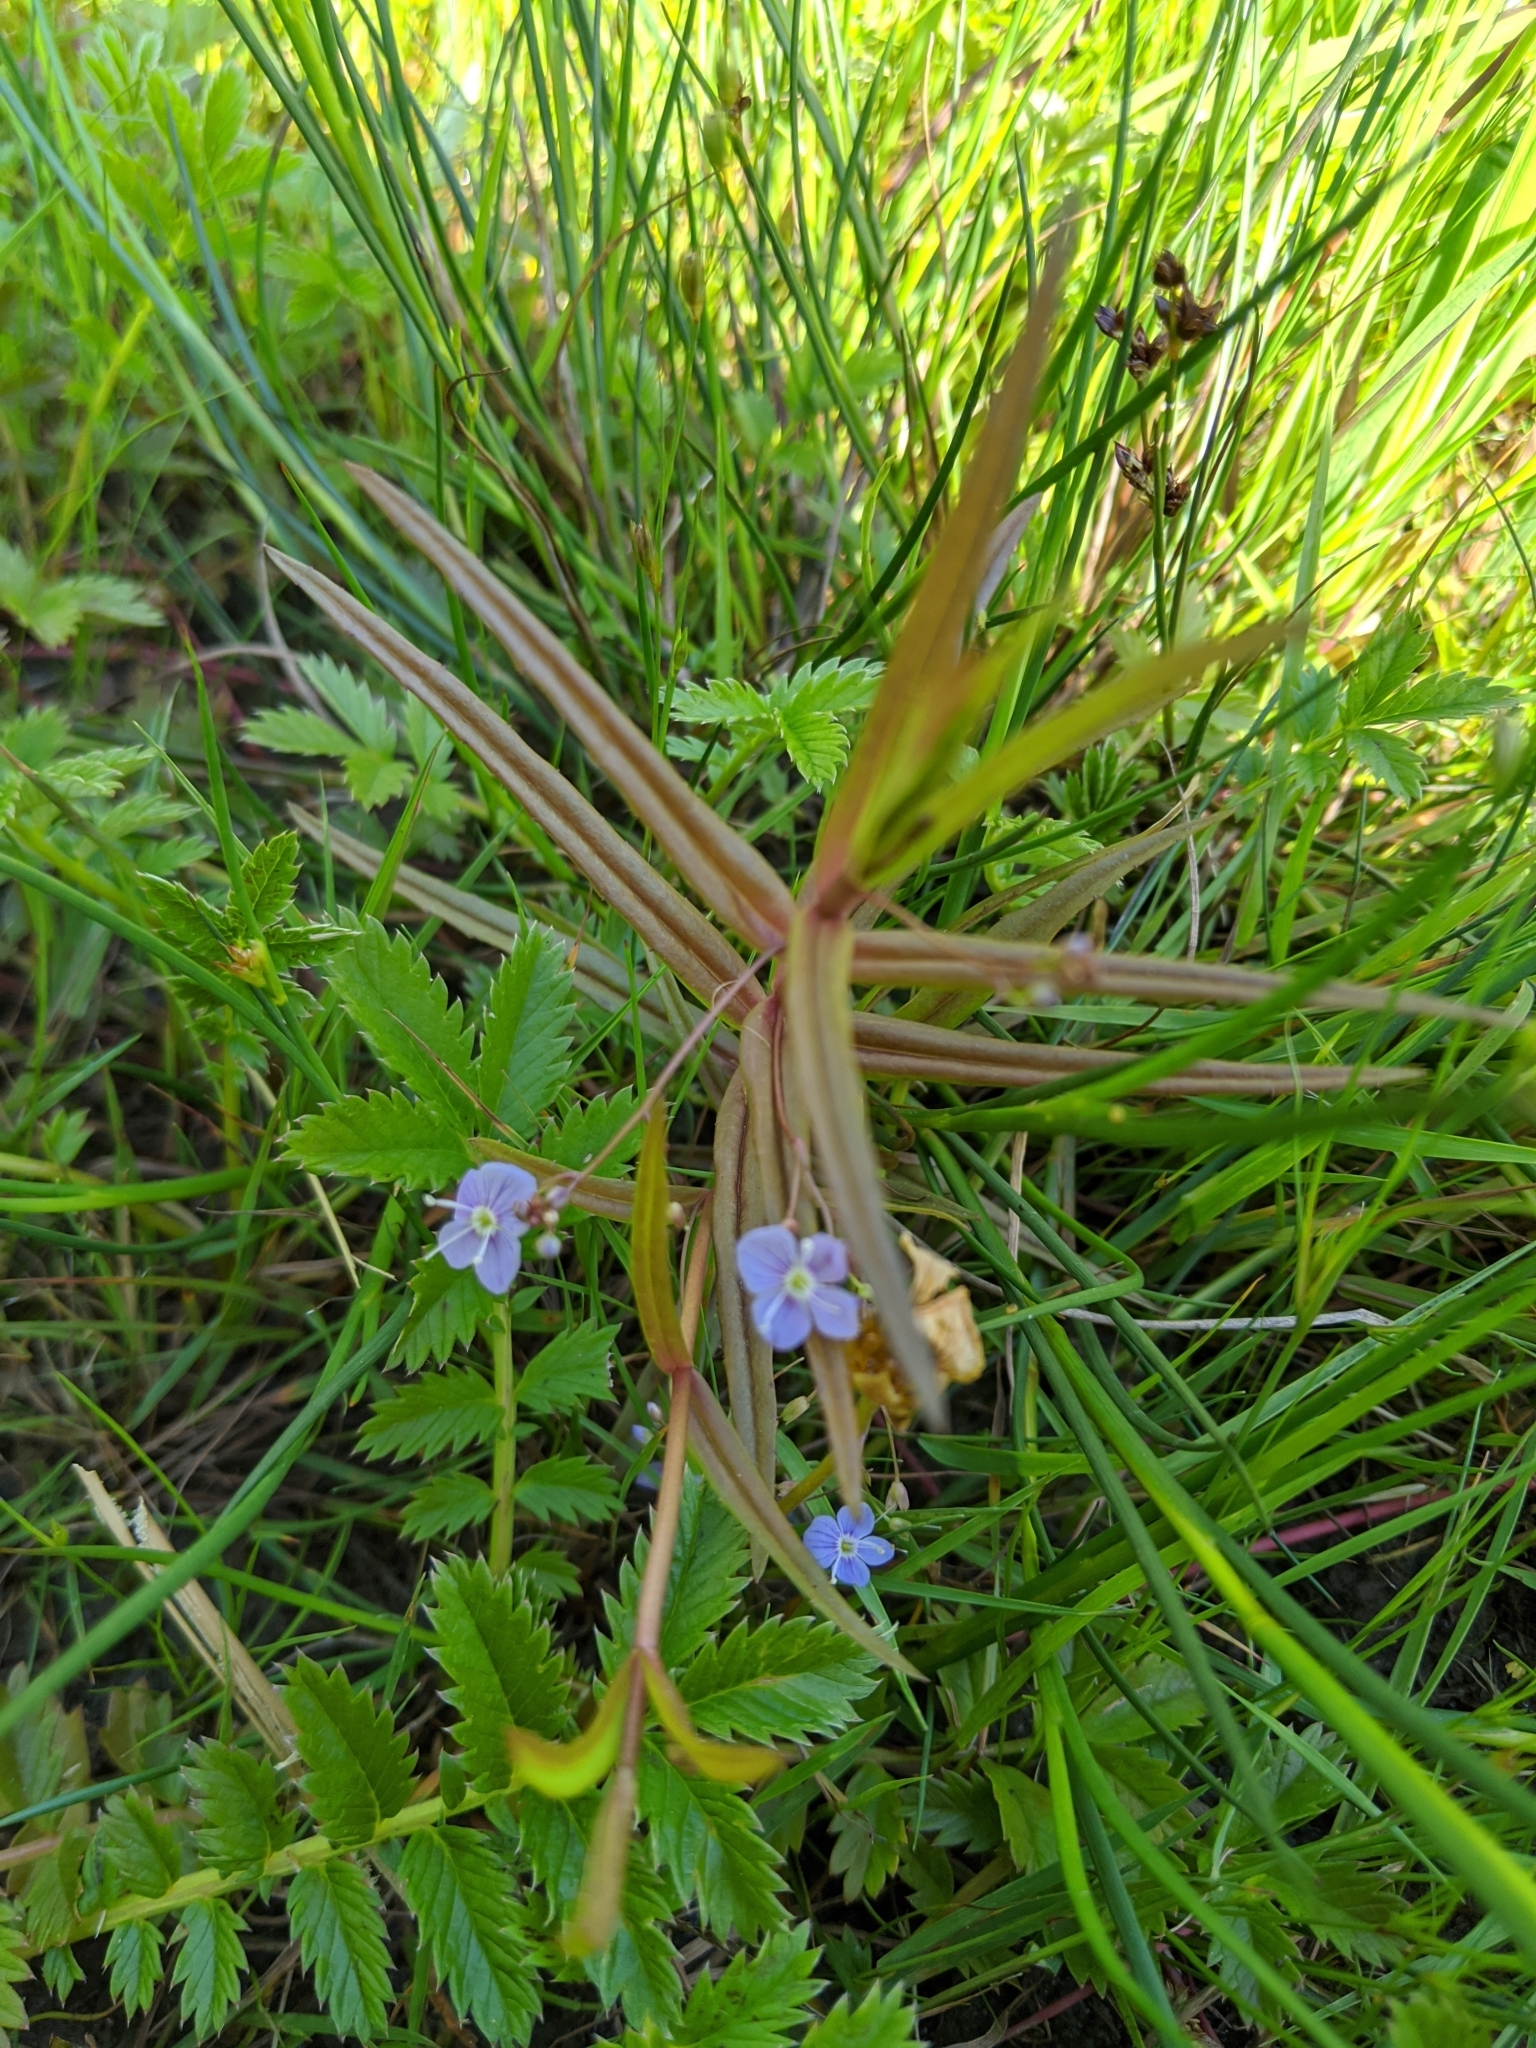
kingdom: Plantae
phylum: Tracheophyta
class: Magnoliopsida
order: Lamiales
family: Plantaginaceae
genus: Veronica
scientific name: Veronica scutellata
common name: Marsh speedwell
